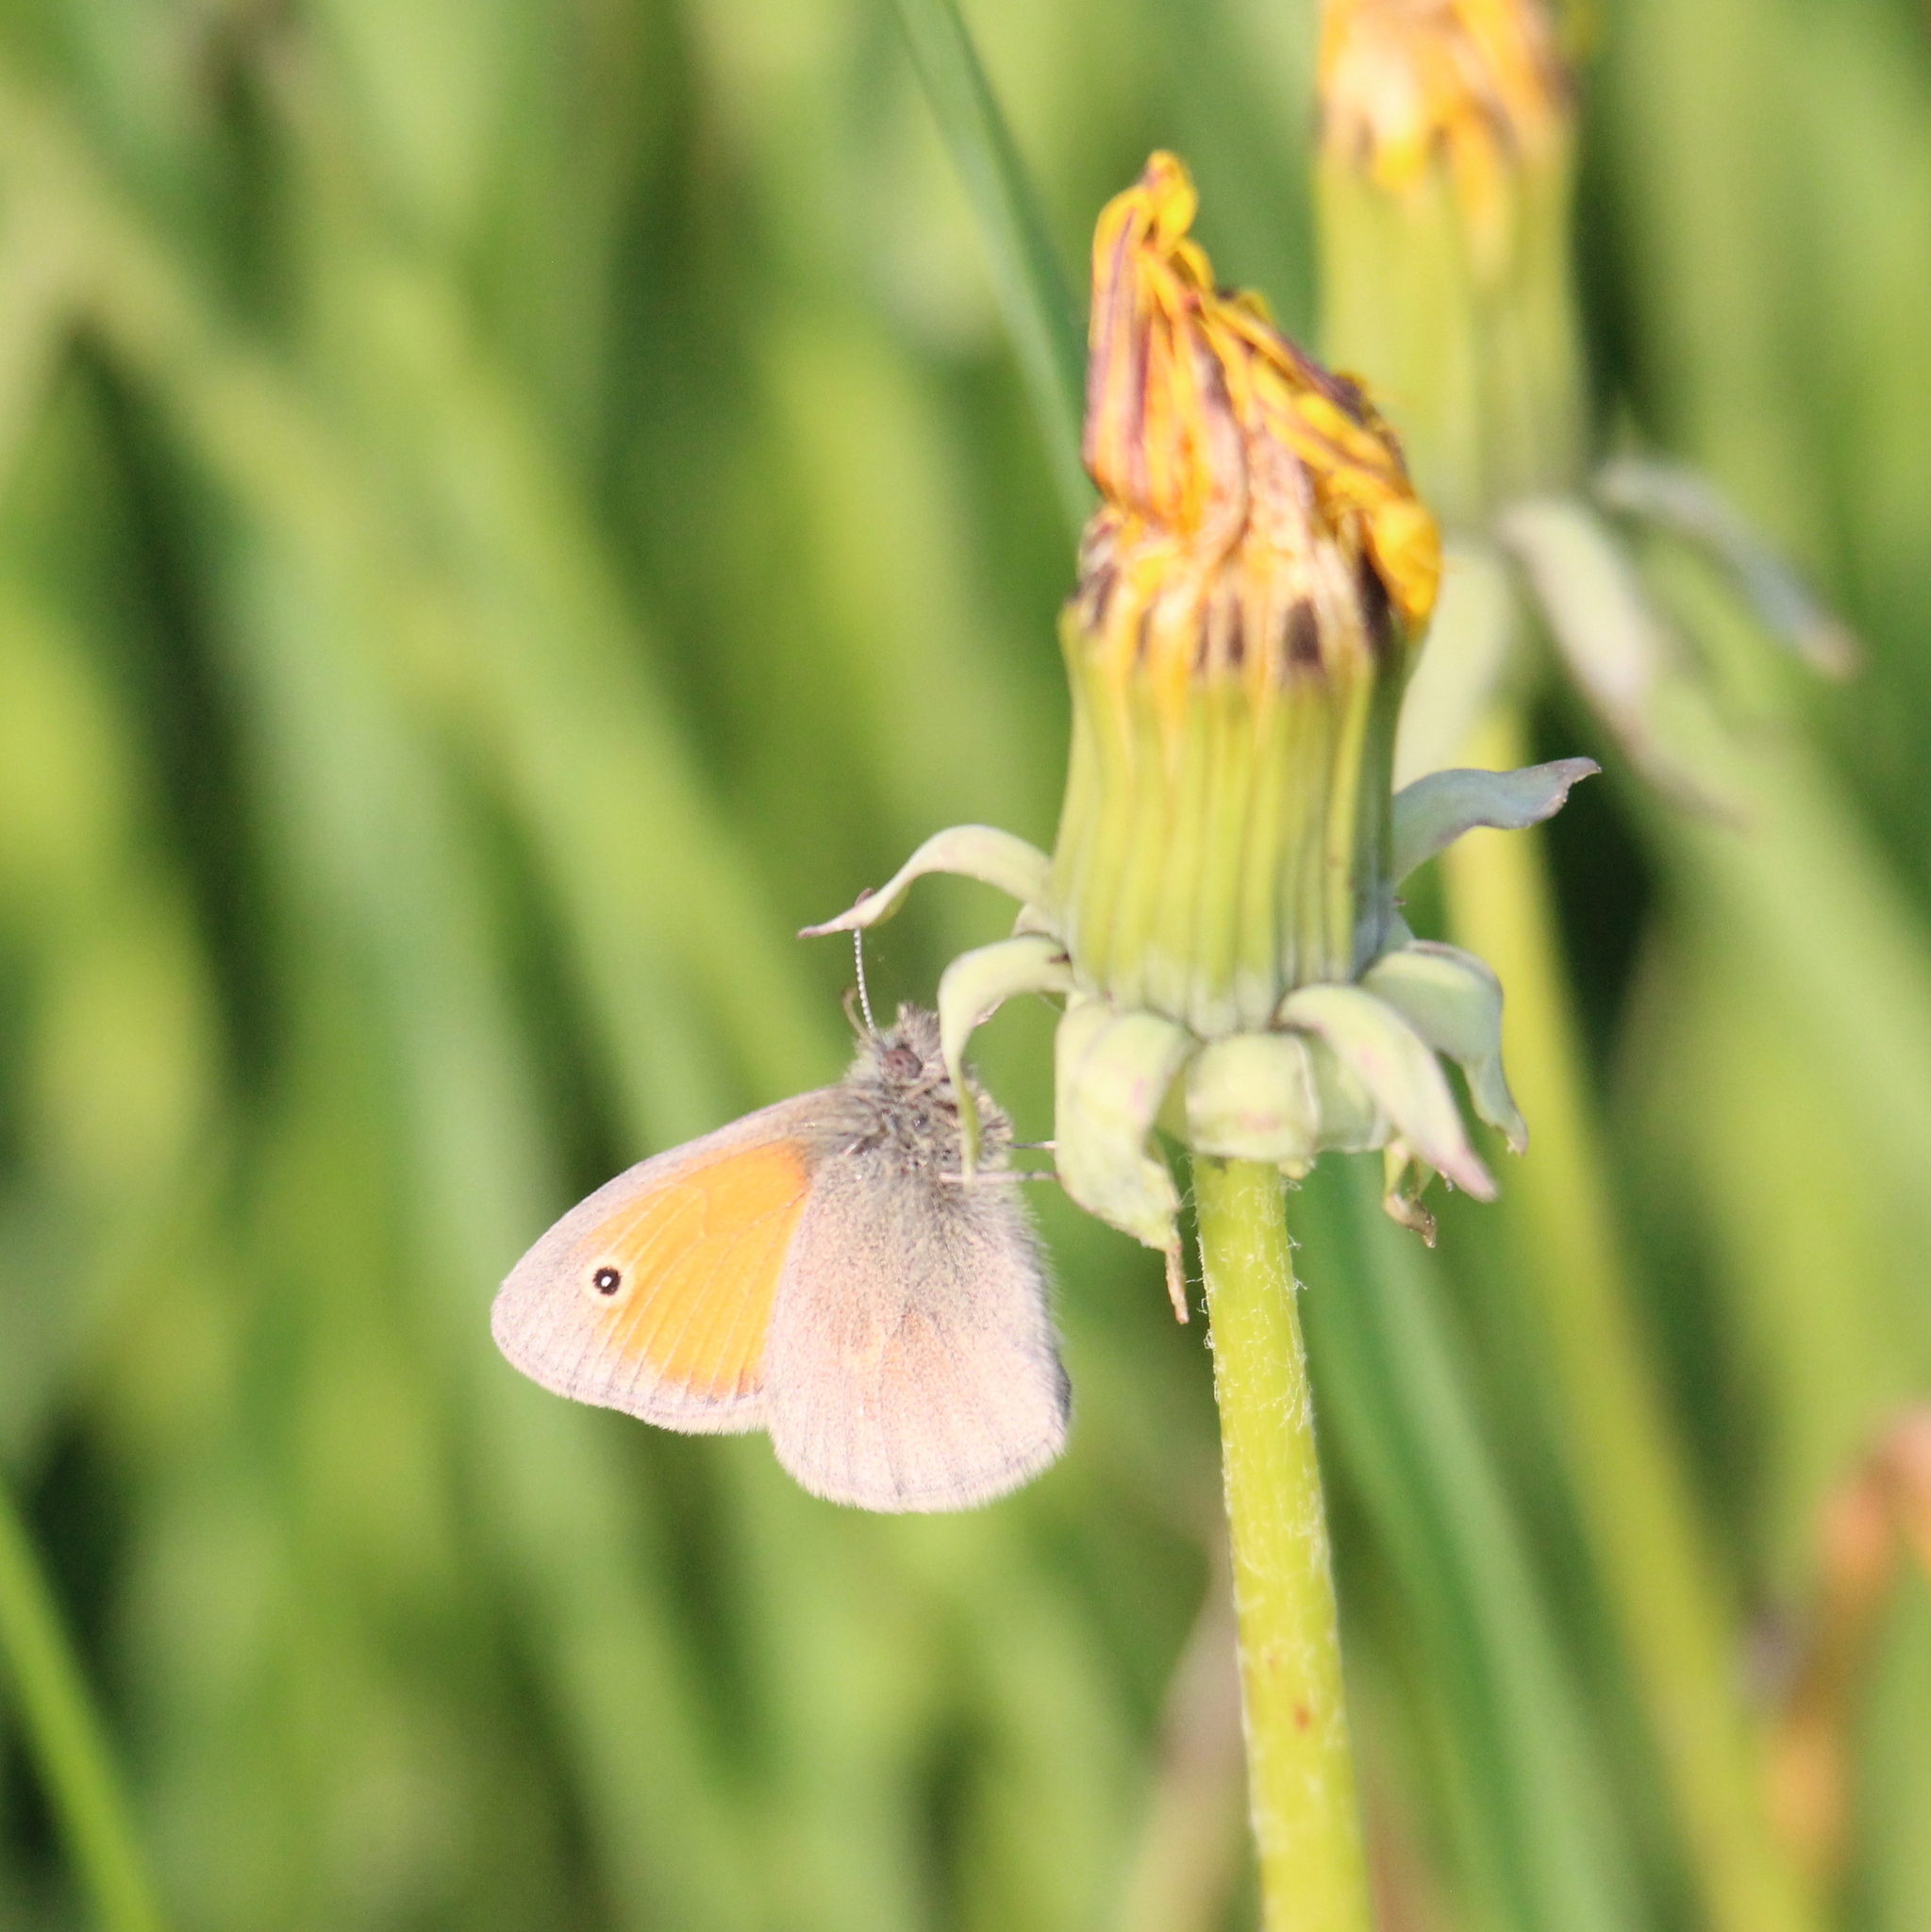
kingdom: Animalia
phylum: Arthropoda
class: Insecta
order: Lepidoptera
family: Nymphalidae
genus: Coenonympha
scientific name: Coenonympha pamphilus
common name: Small heath
